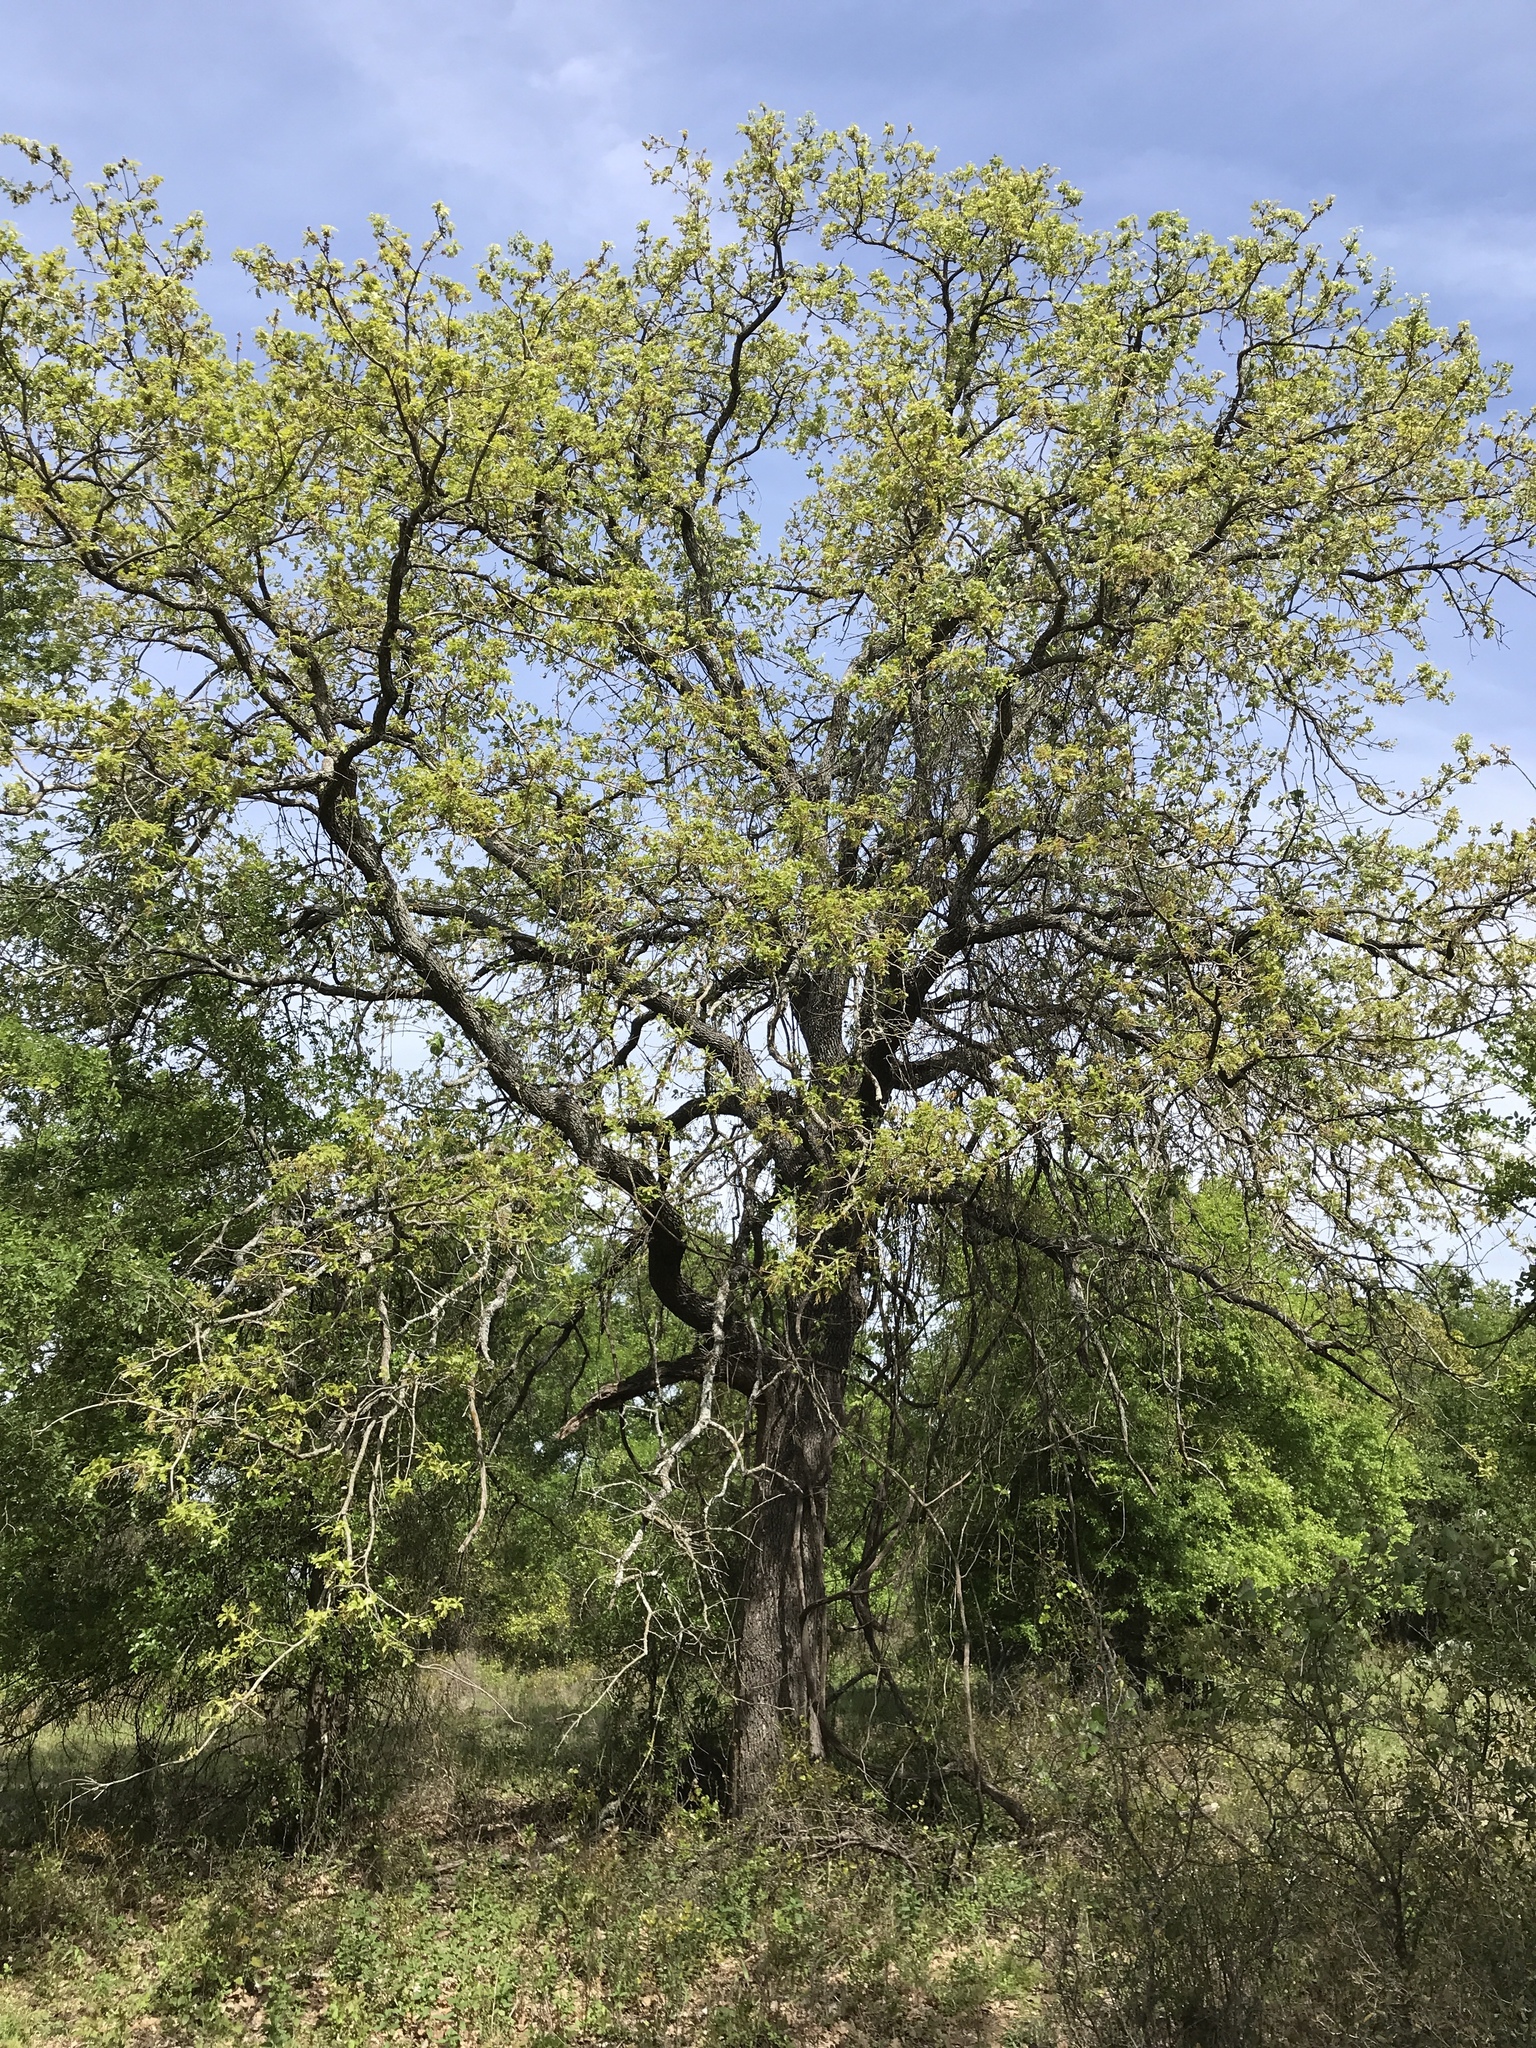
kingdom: Plantae
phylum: Tracheophyta
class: Magnoliopsida
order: Fagales
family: Fagaceae
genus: Quercus
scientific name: Quercus stellata
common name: Post oak
